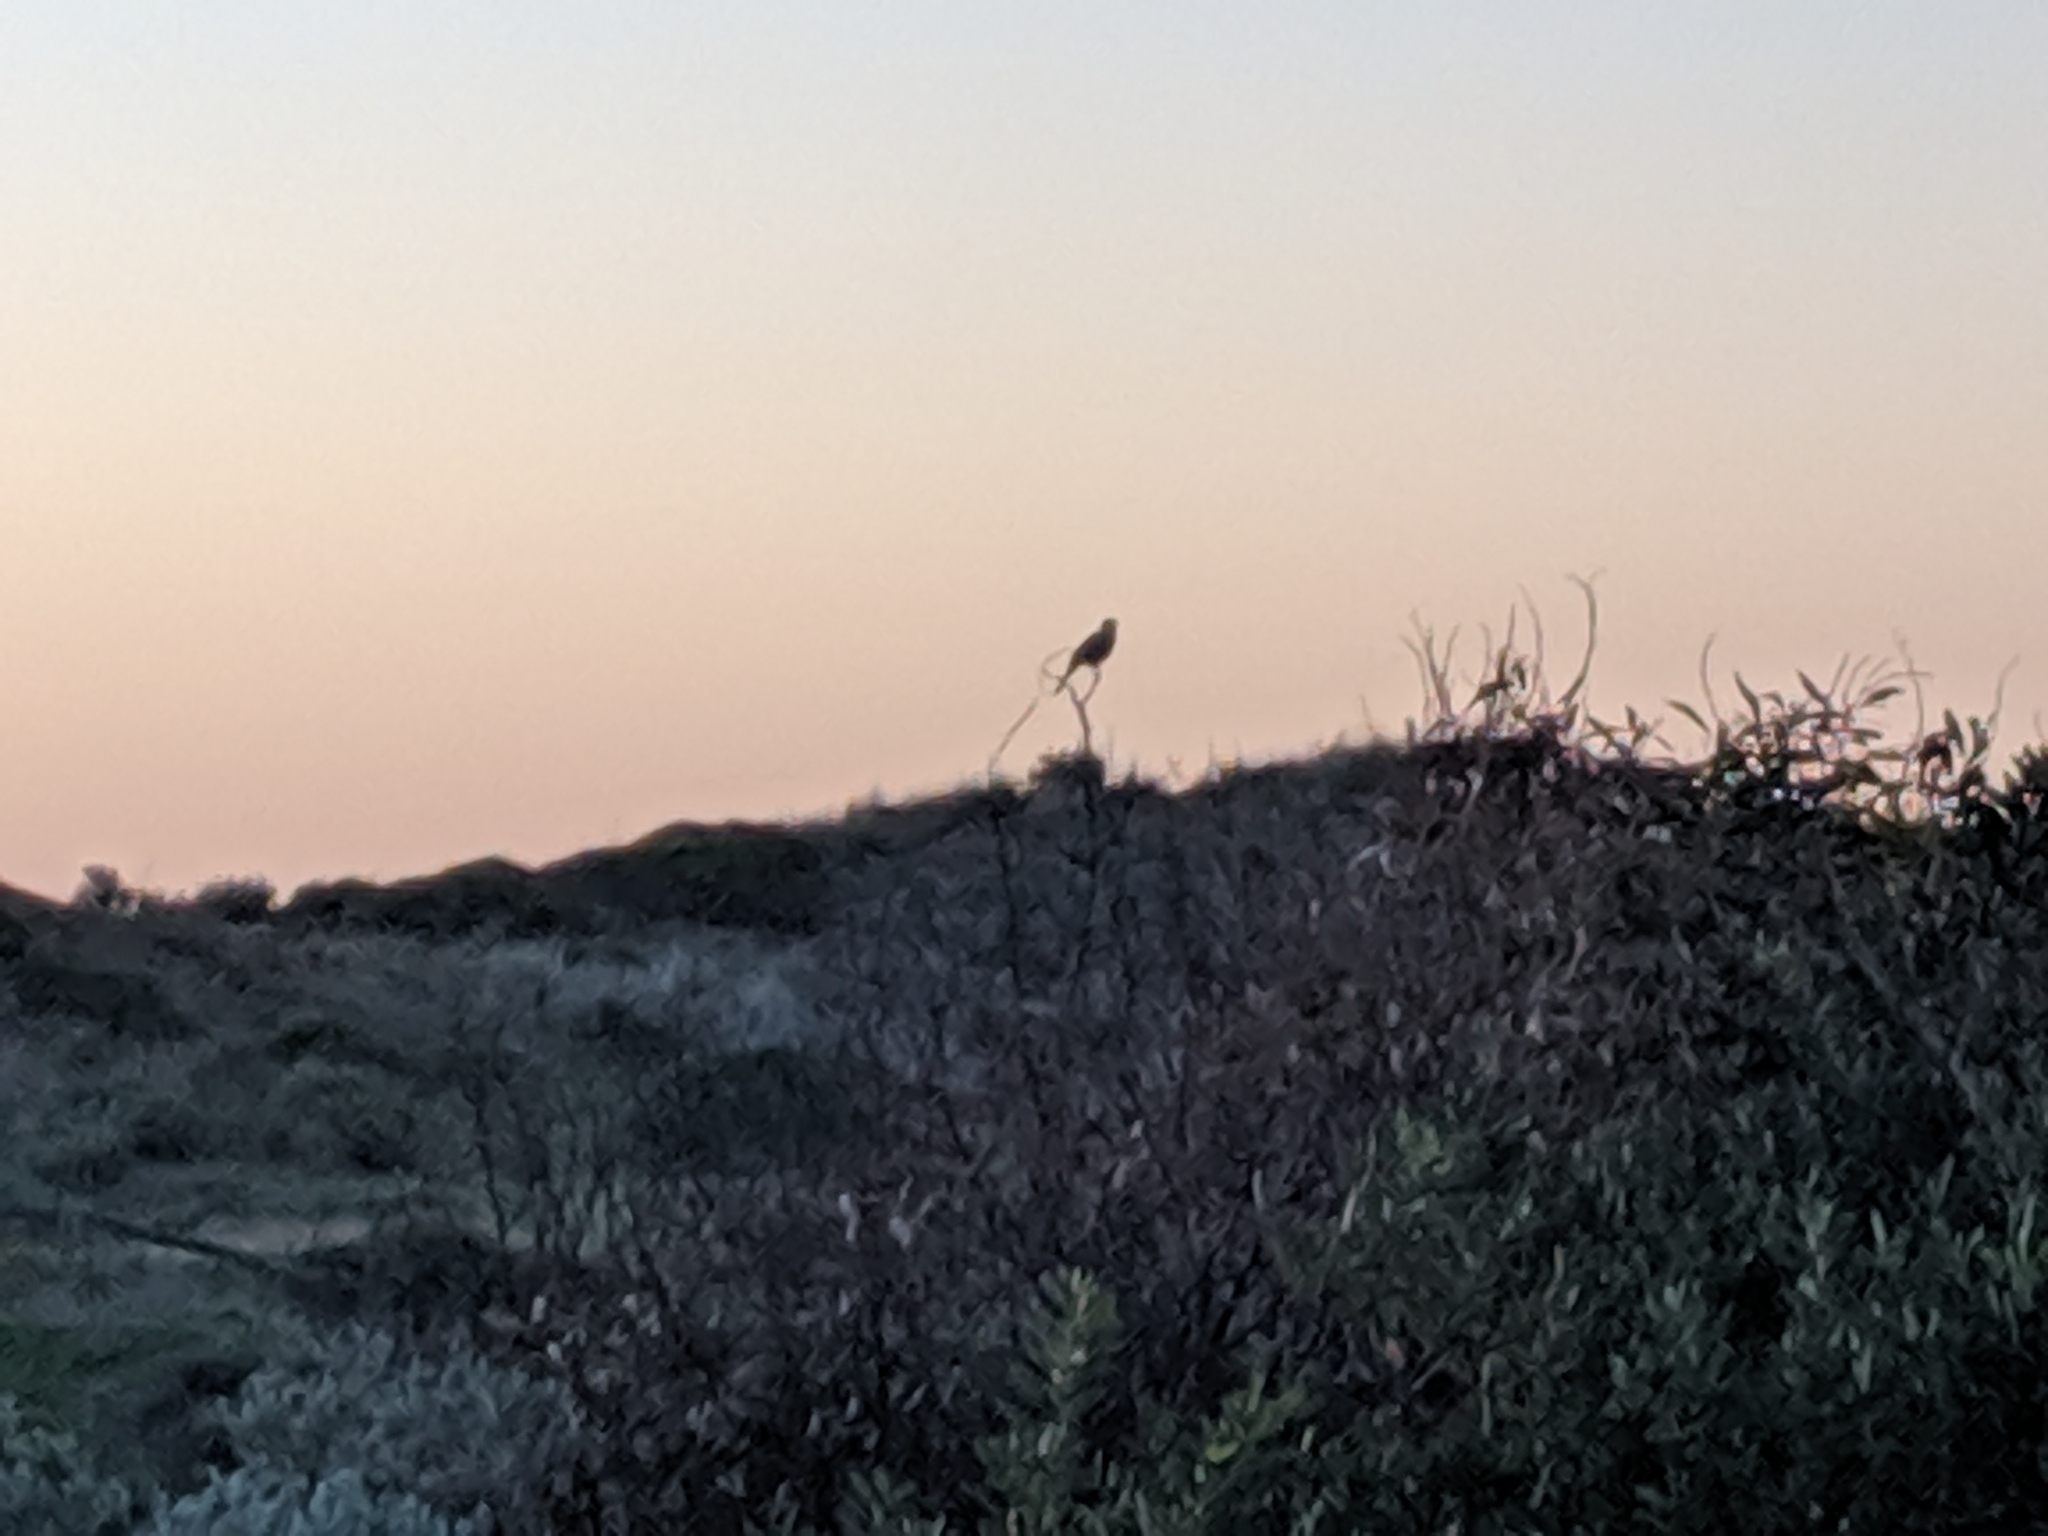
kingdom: Animalia
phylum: Chordata
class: Aves
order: Passeriformes
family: Meliphagidae
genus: Gavicalis
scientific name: Gavicalis virescens
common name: Singing honeyeater
